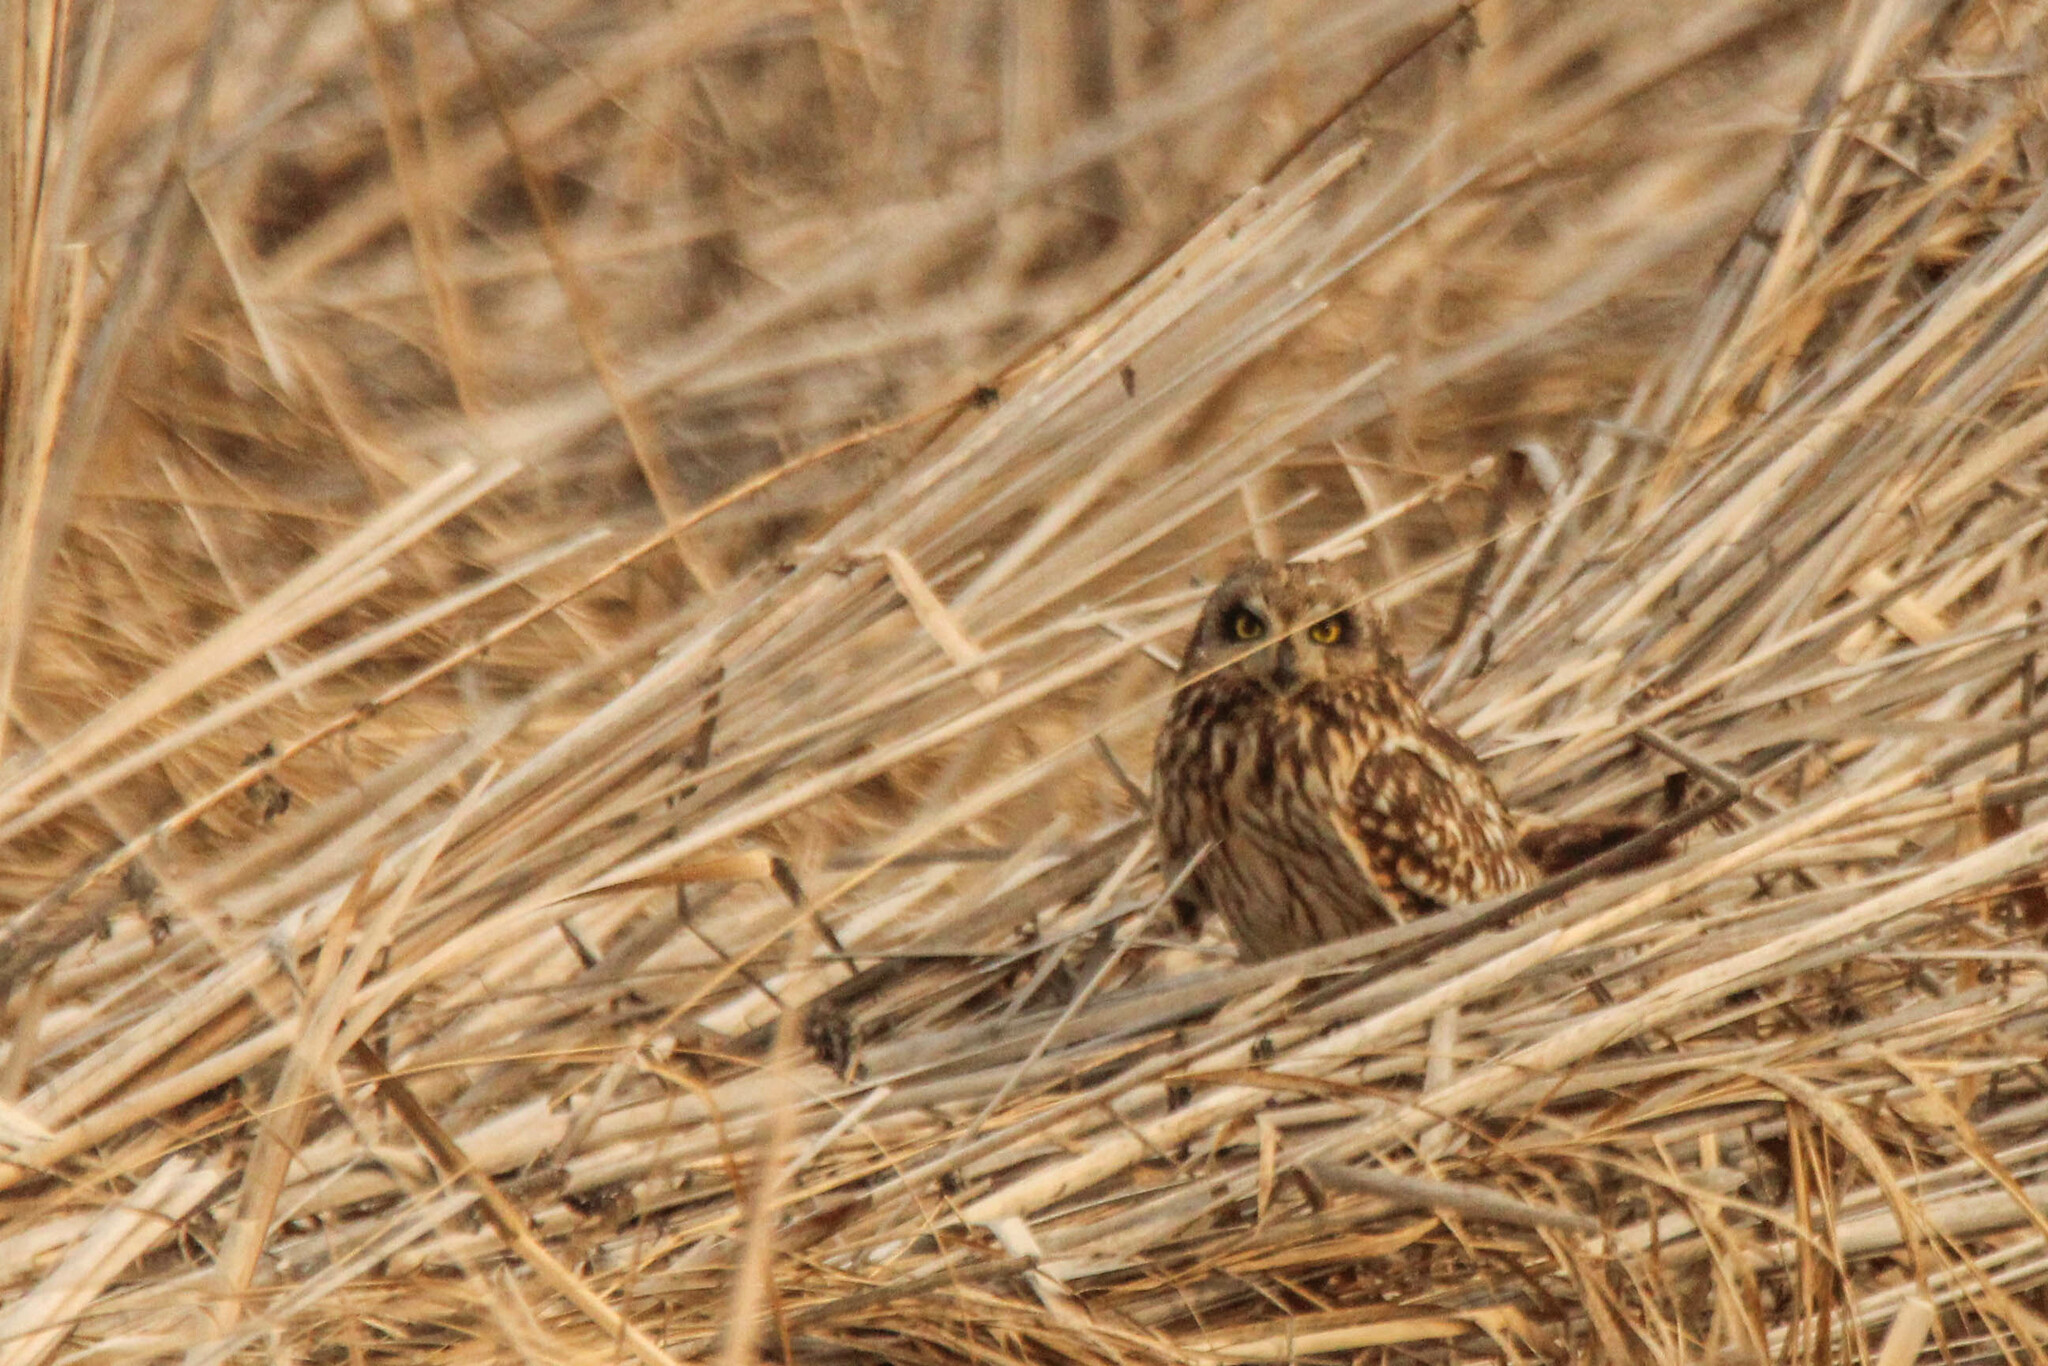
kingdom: Animalia
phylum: Chordata
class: Aves
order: Strigiformes
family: Strigidae
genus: Asio
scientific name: Asio flammeus
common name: Short-eared owl
